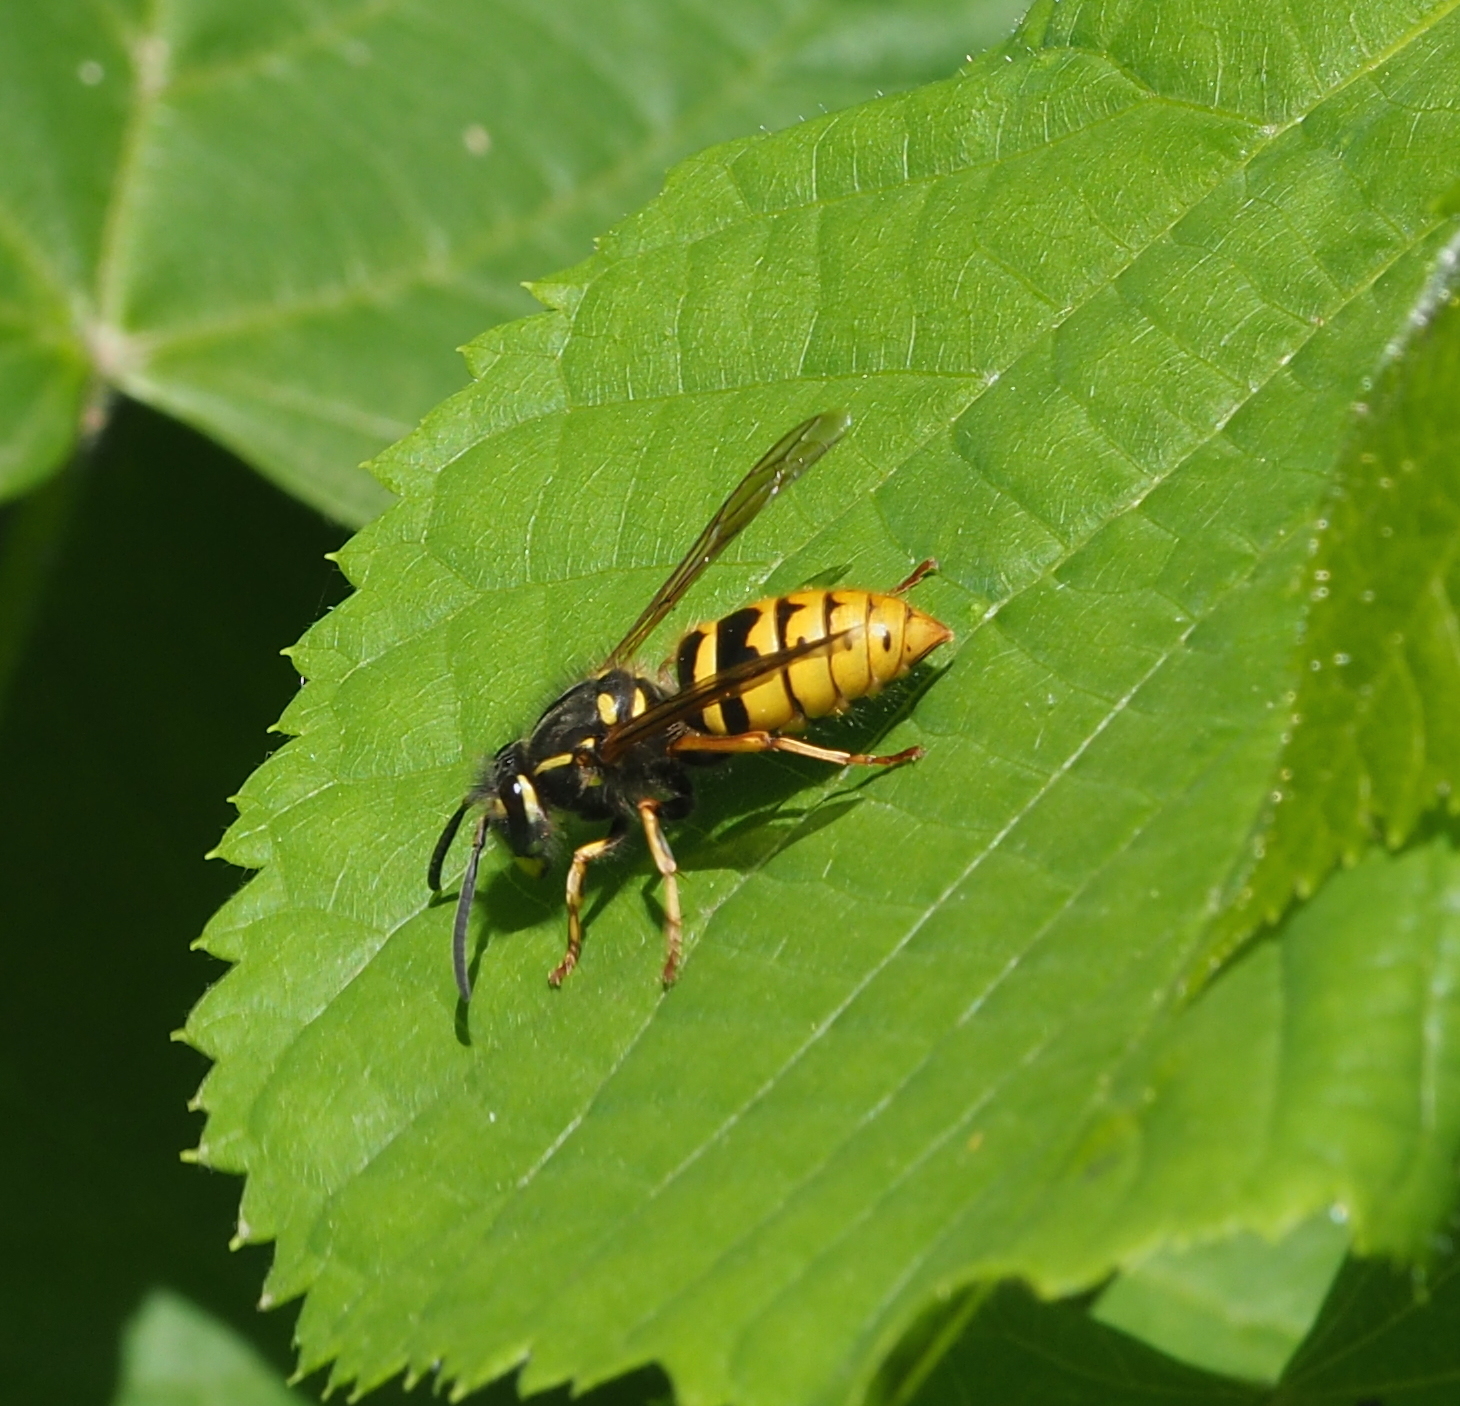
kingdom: Animalia
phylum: Arthropoda
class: Insecta
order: Hymenoptera
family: Vespidae
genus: Vespula
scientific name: Vespula vulgaris
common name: Common wasp
